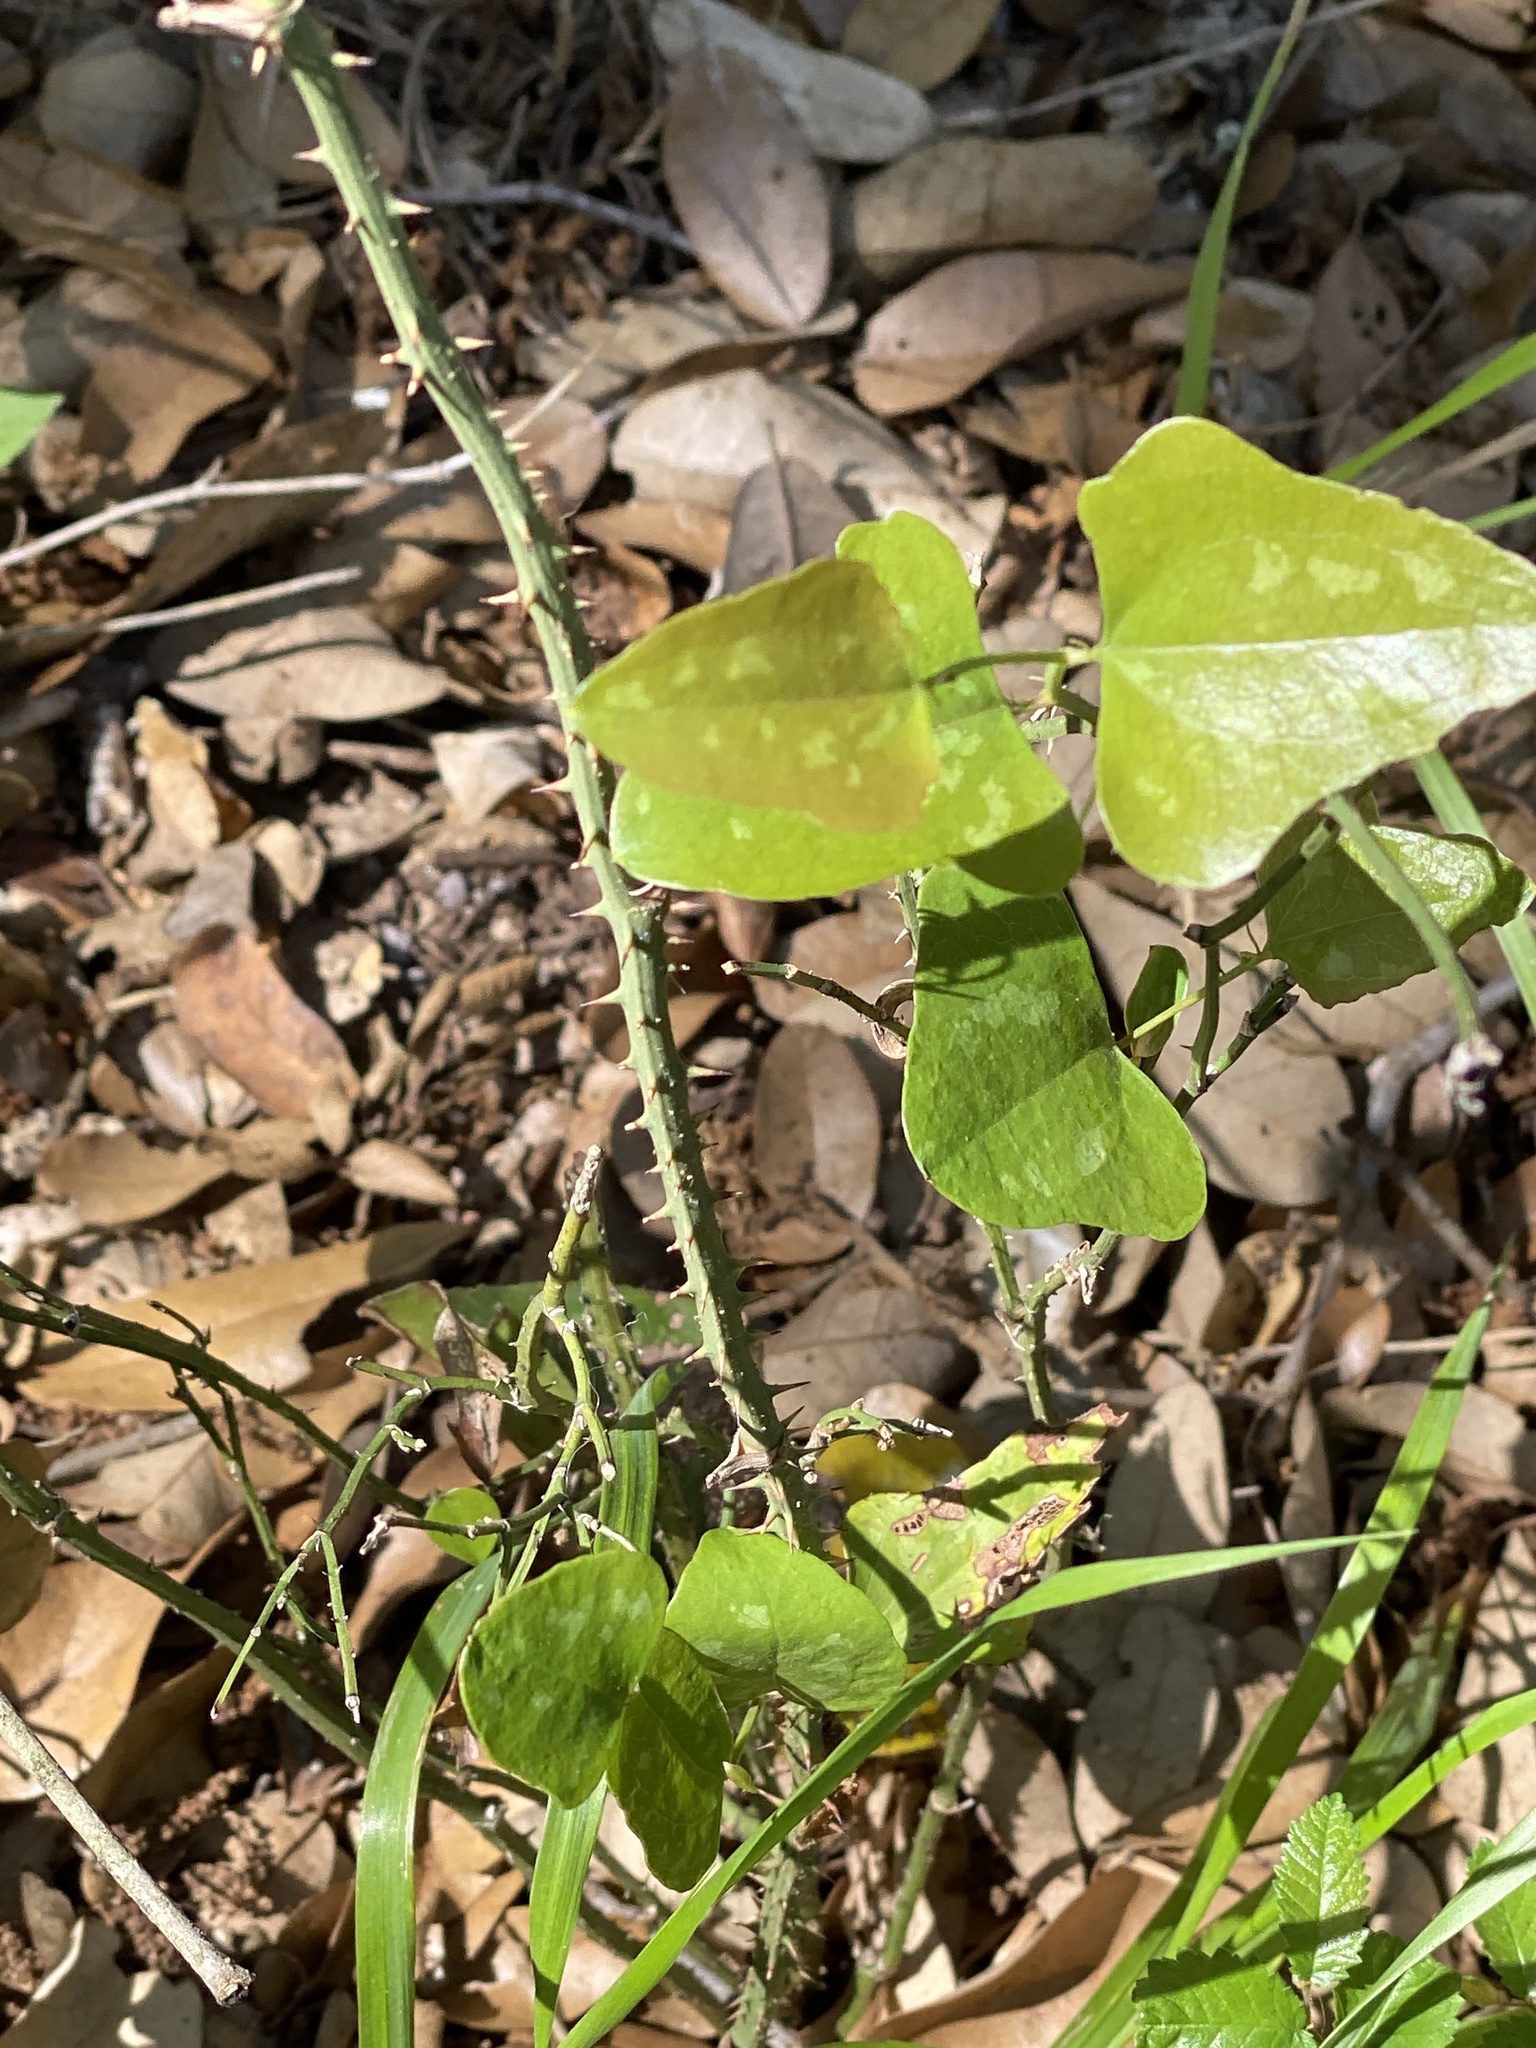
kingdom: Plantae
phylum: Tracheophyta
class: Liliopsida
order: Liliales
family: Smilacaceae
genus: Smilax
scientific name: Smilax bona-nox
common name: Catbrier
